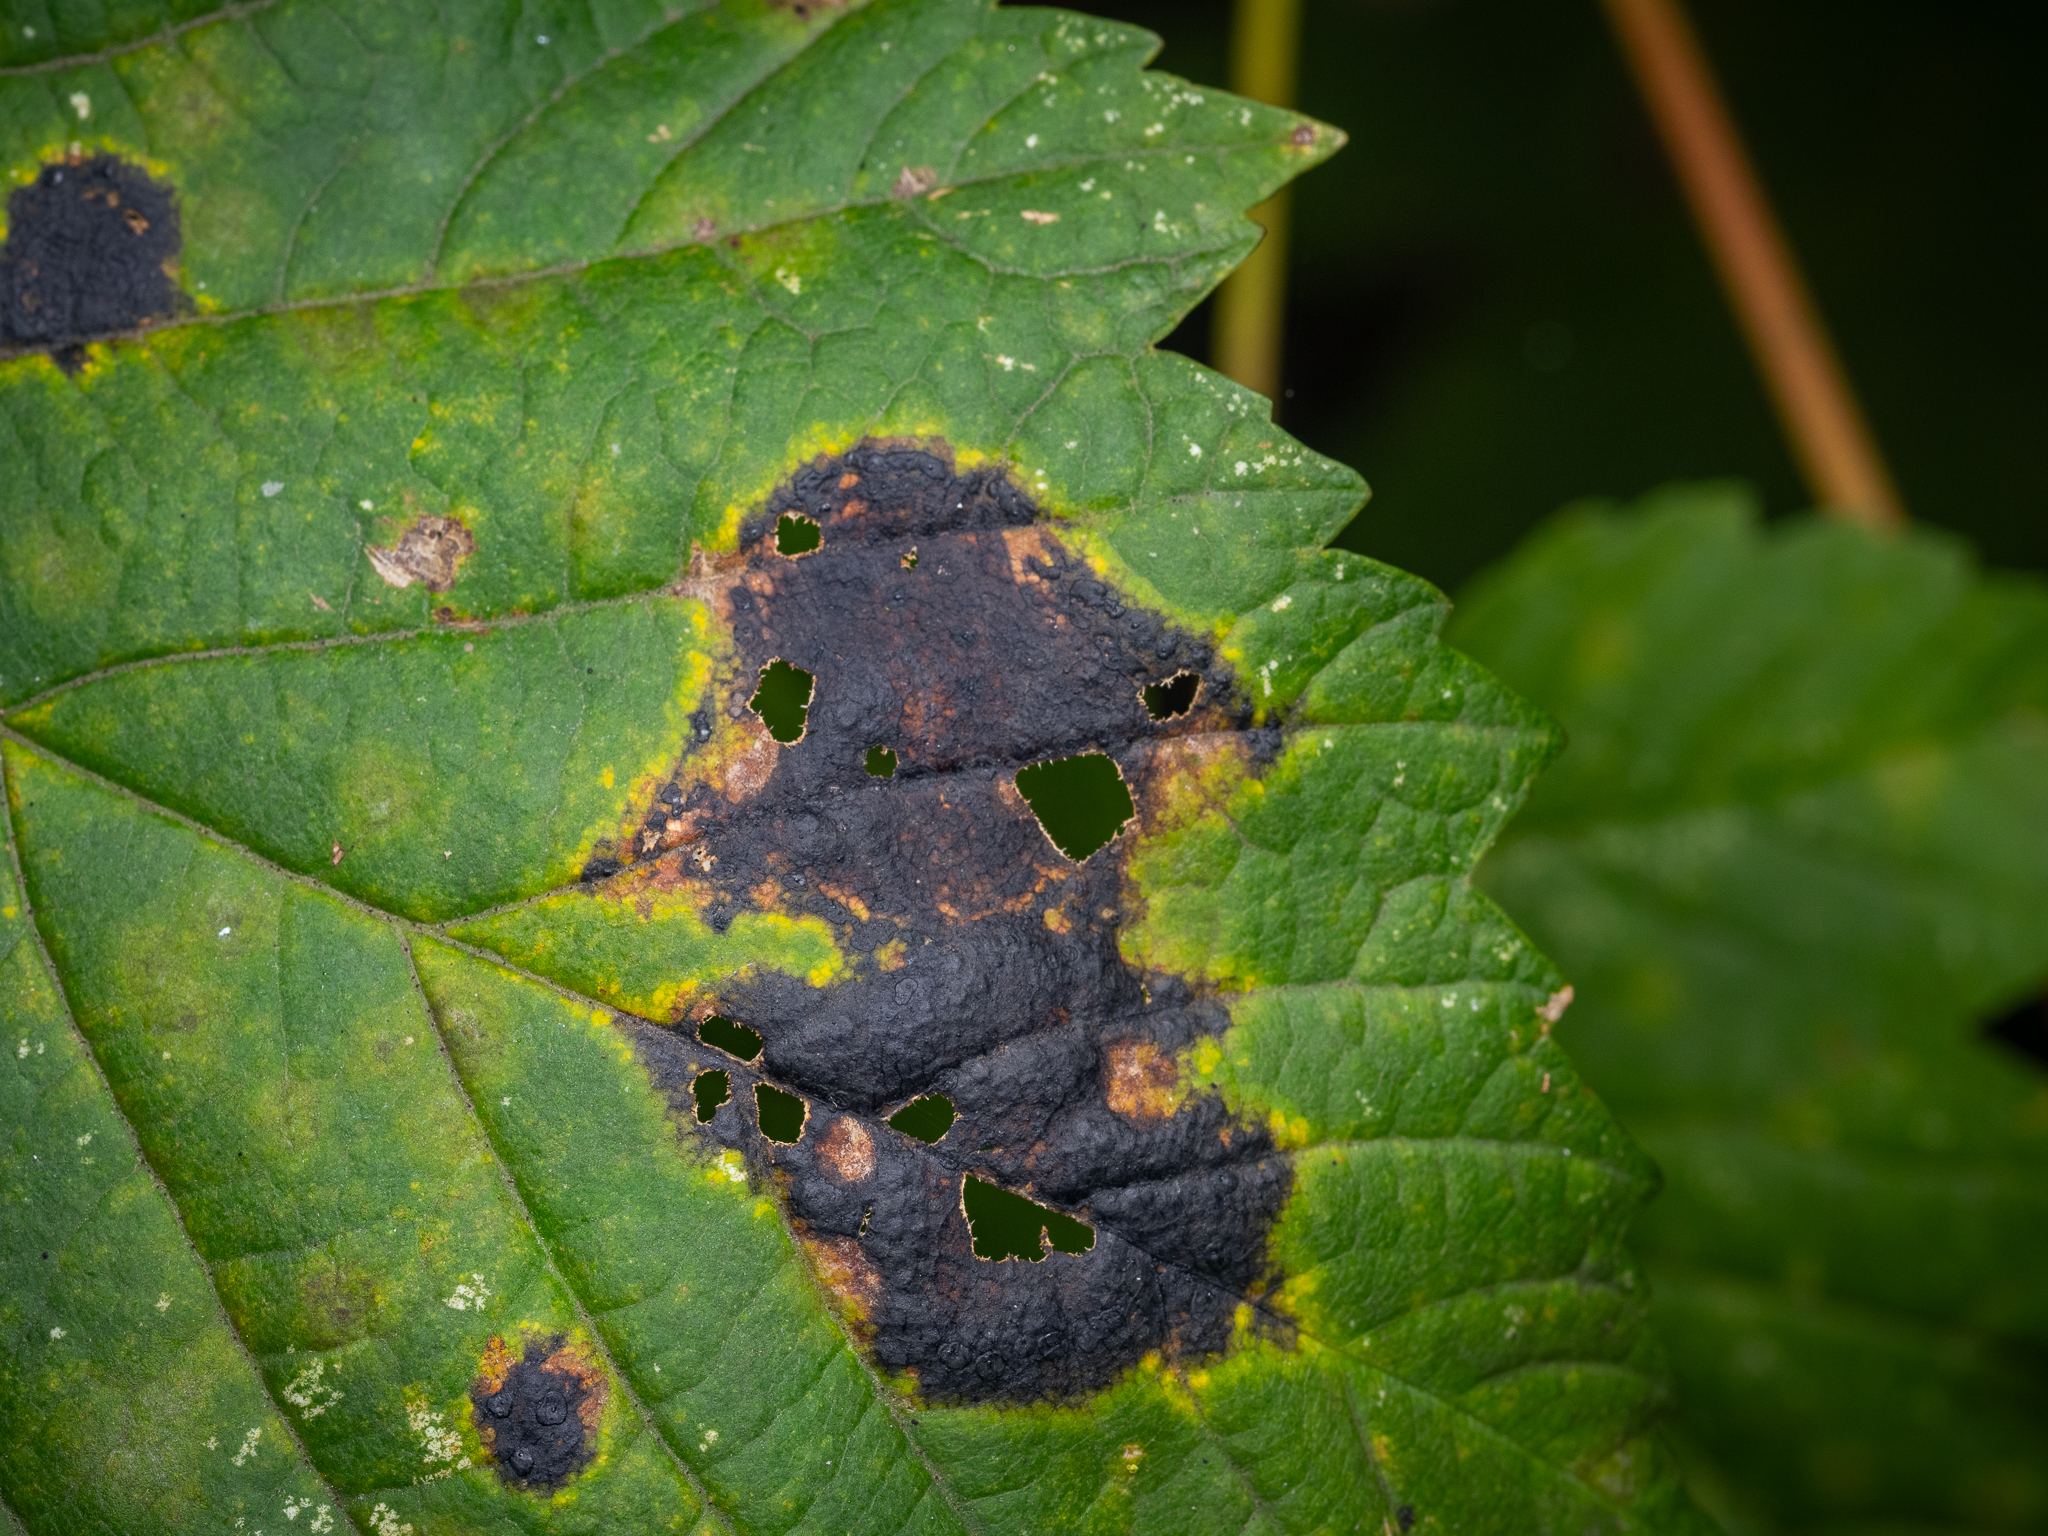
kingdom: Fungi
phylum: Ascomycota
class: Leotiomycetes
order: Rhytismatales
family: Rhytismataceae
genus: Rhytisma
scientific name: Rhytisma acerinum
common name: European tar spot
